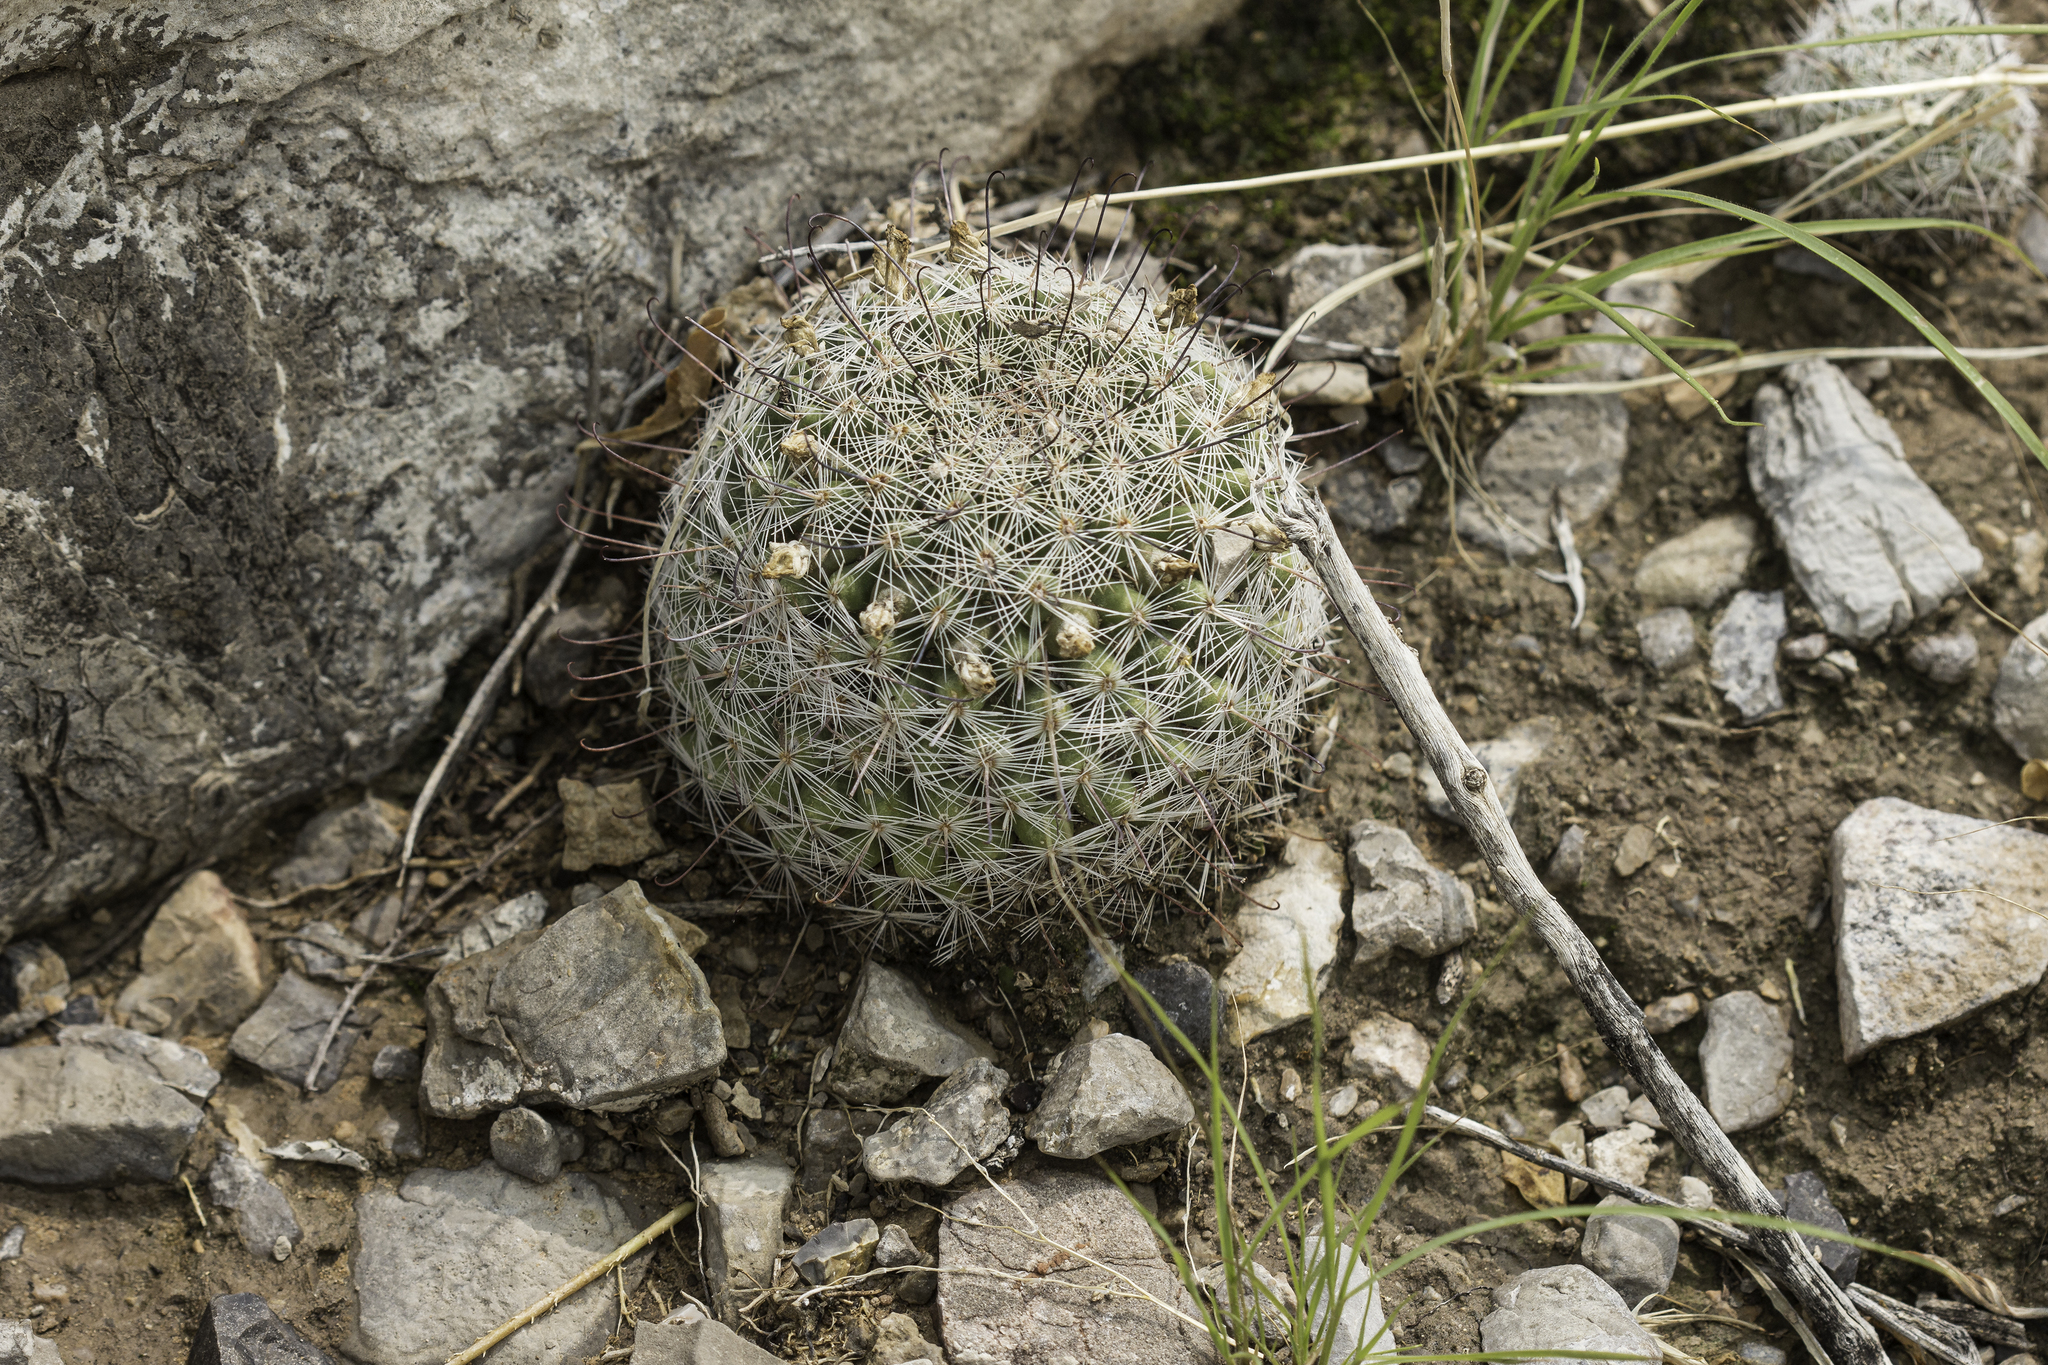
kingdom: Plantae
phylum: Tracheophyta
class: Magnoliopsida
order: Caryophyllales
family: Cactaceae
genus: Cochemiea
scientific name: Cochemiea grahamii
